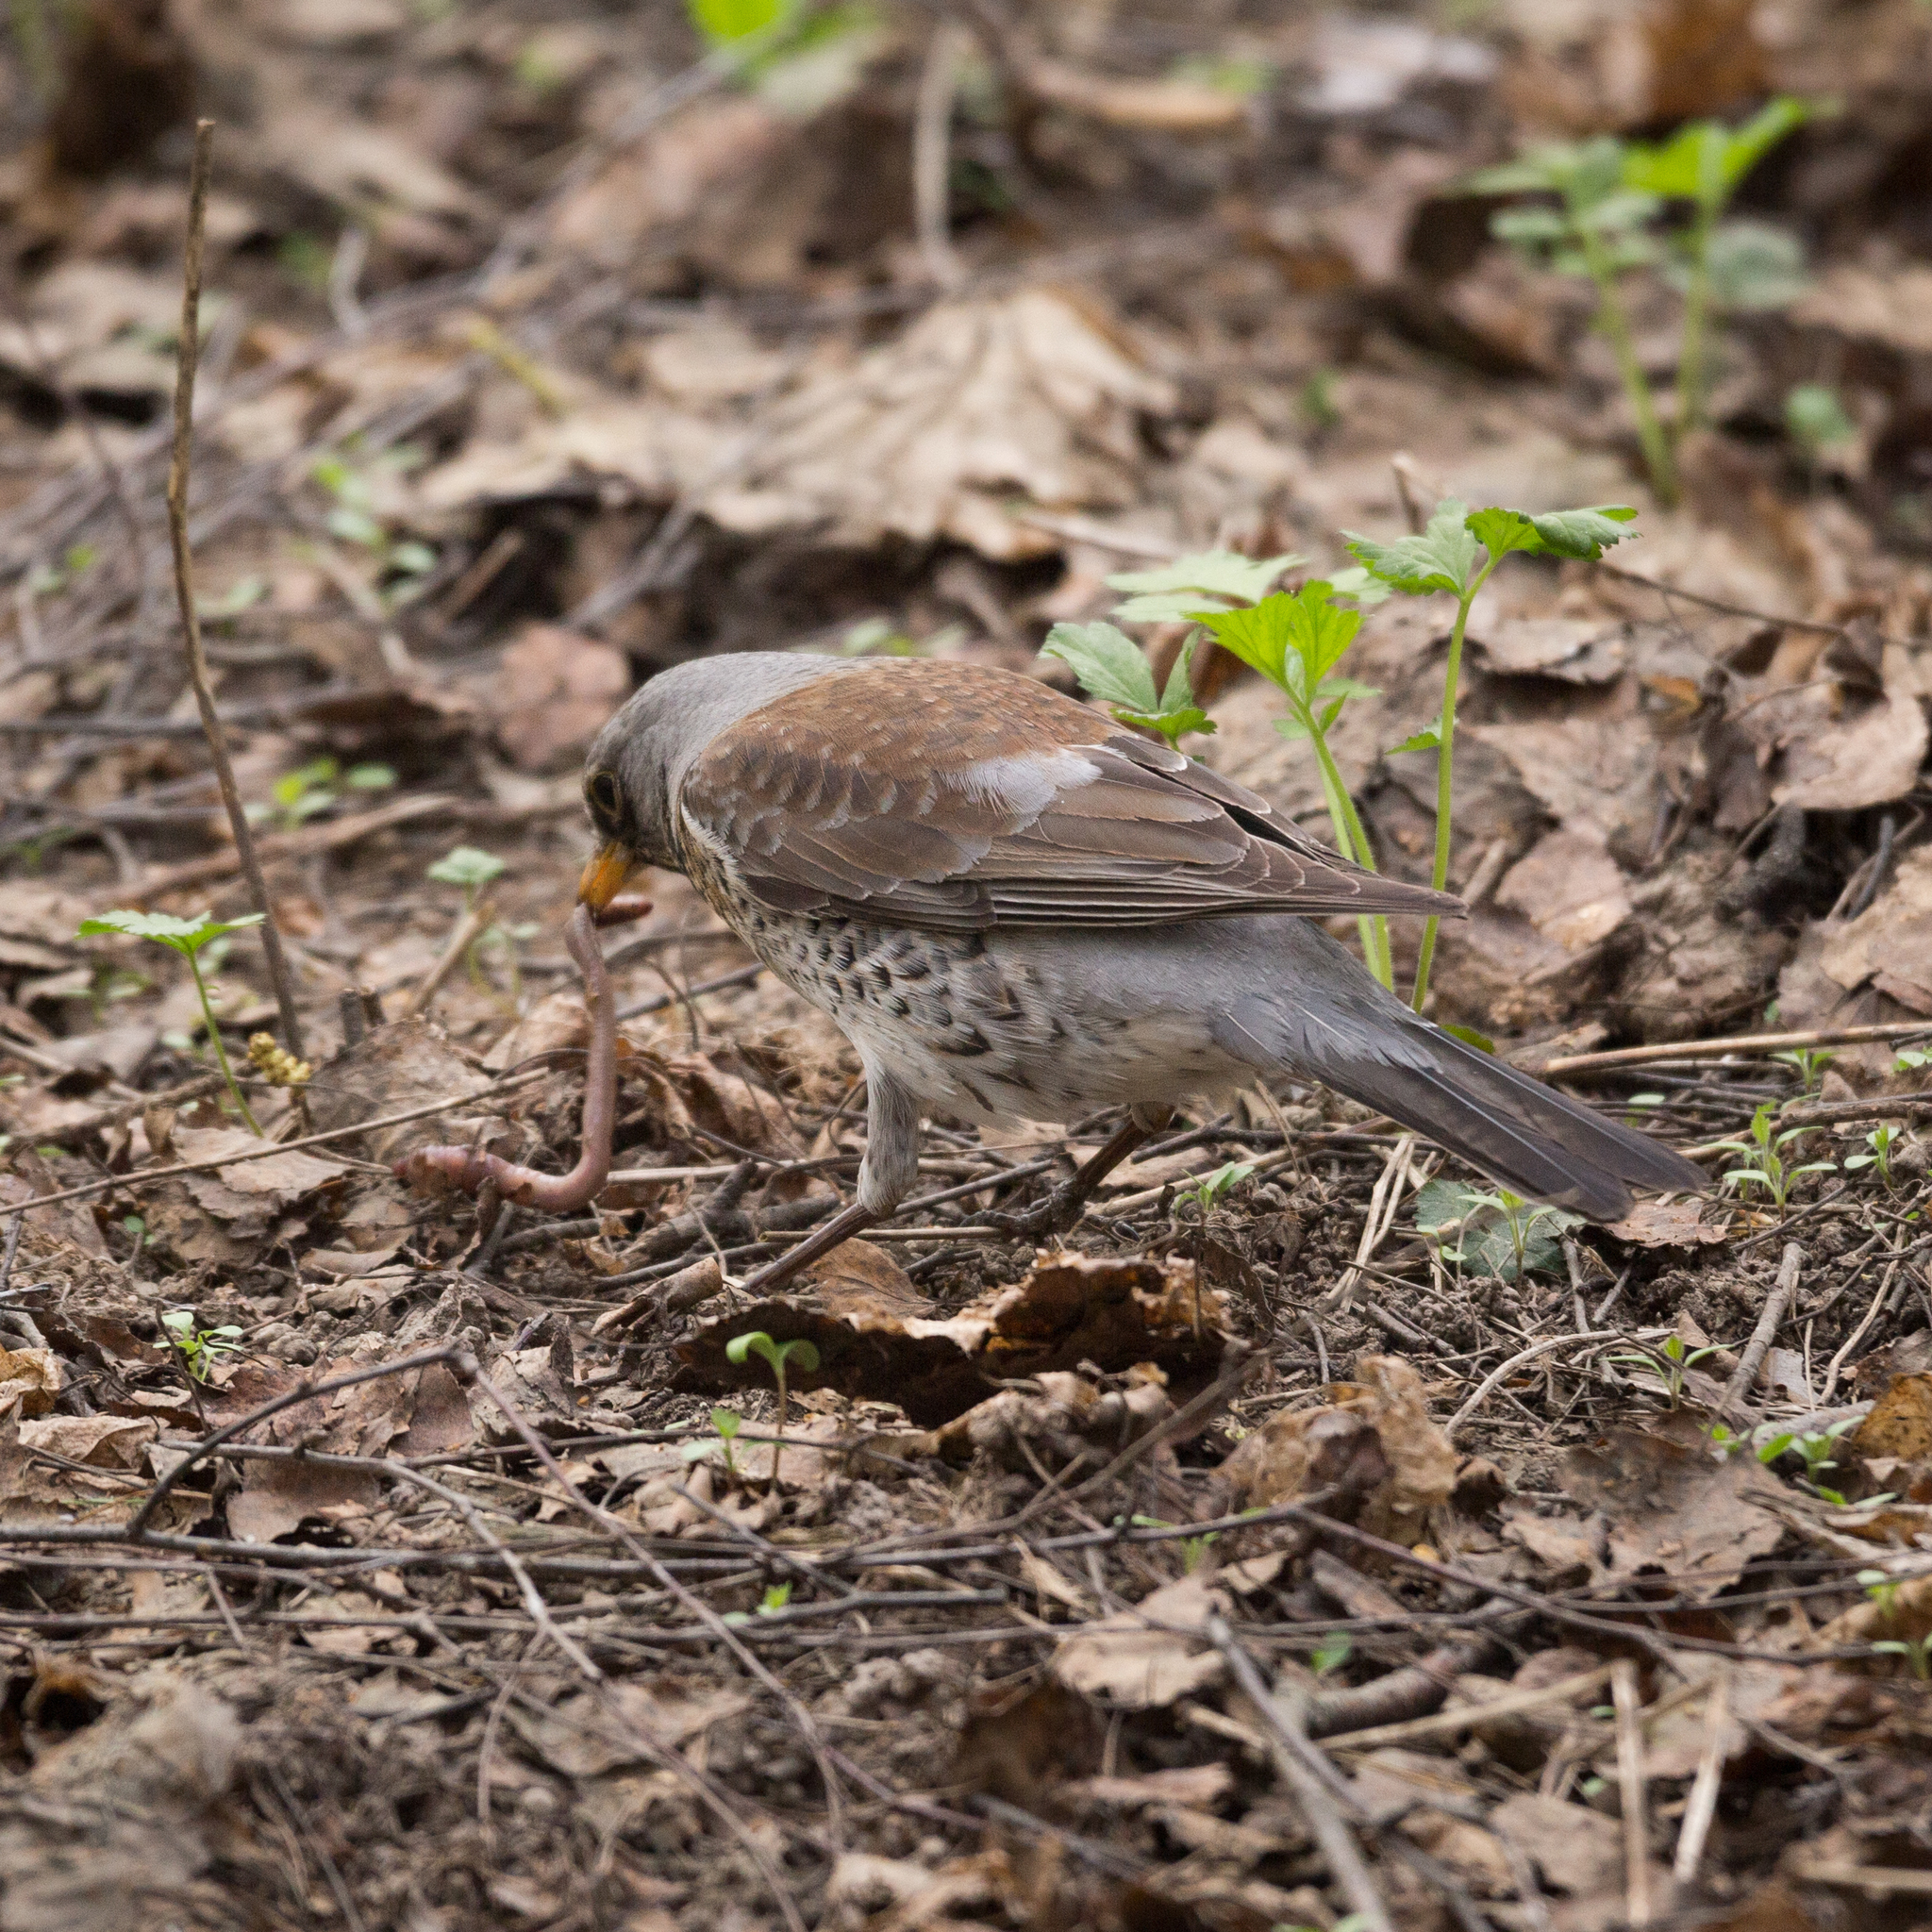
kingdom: Animalia
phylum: Chordata
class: Aves
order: Passeriformes
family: Turdidae
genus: Turdus
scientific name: Turdus pilaris
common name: Fieldfare
